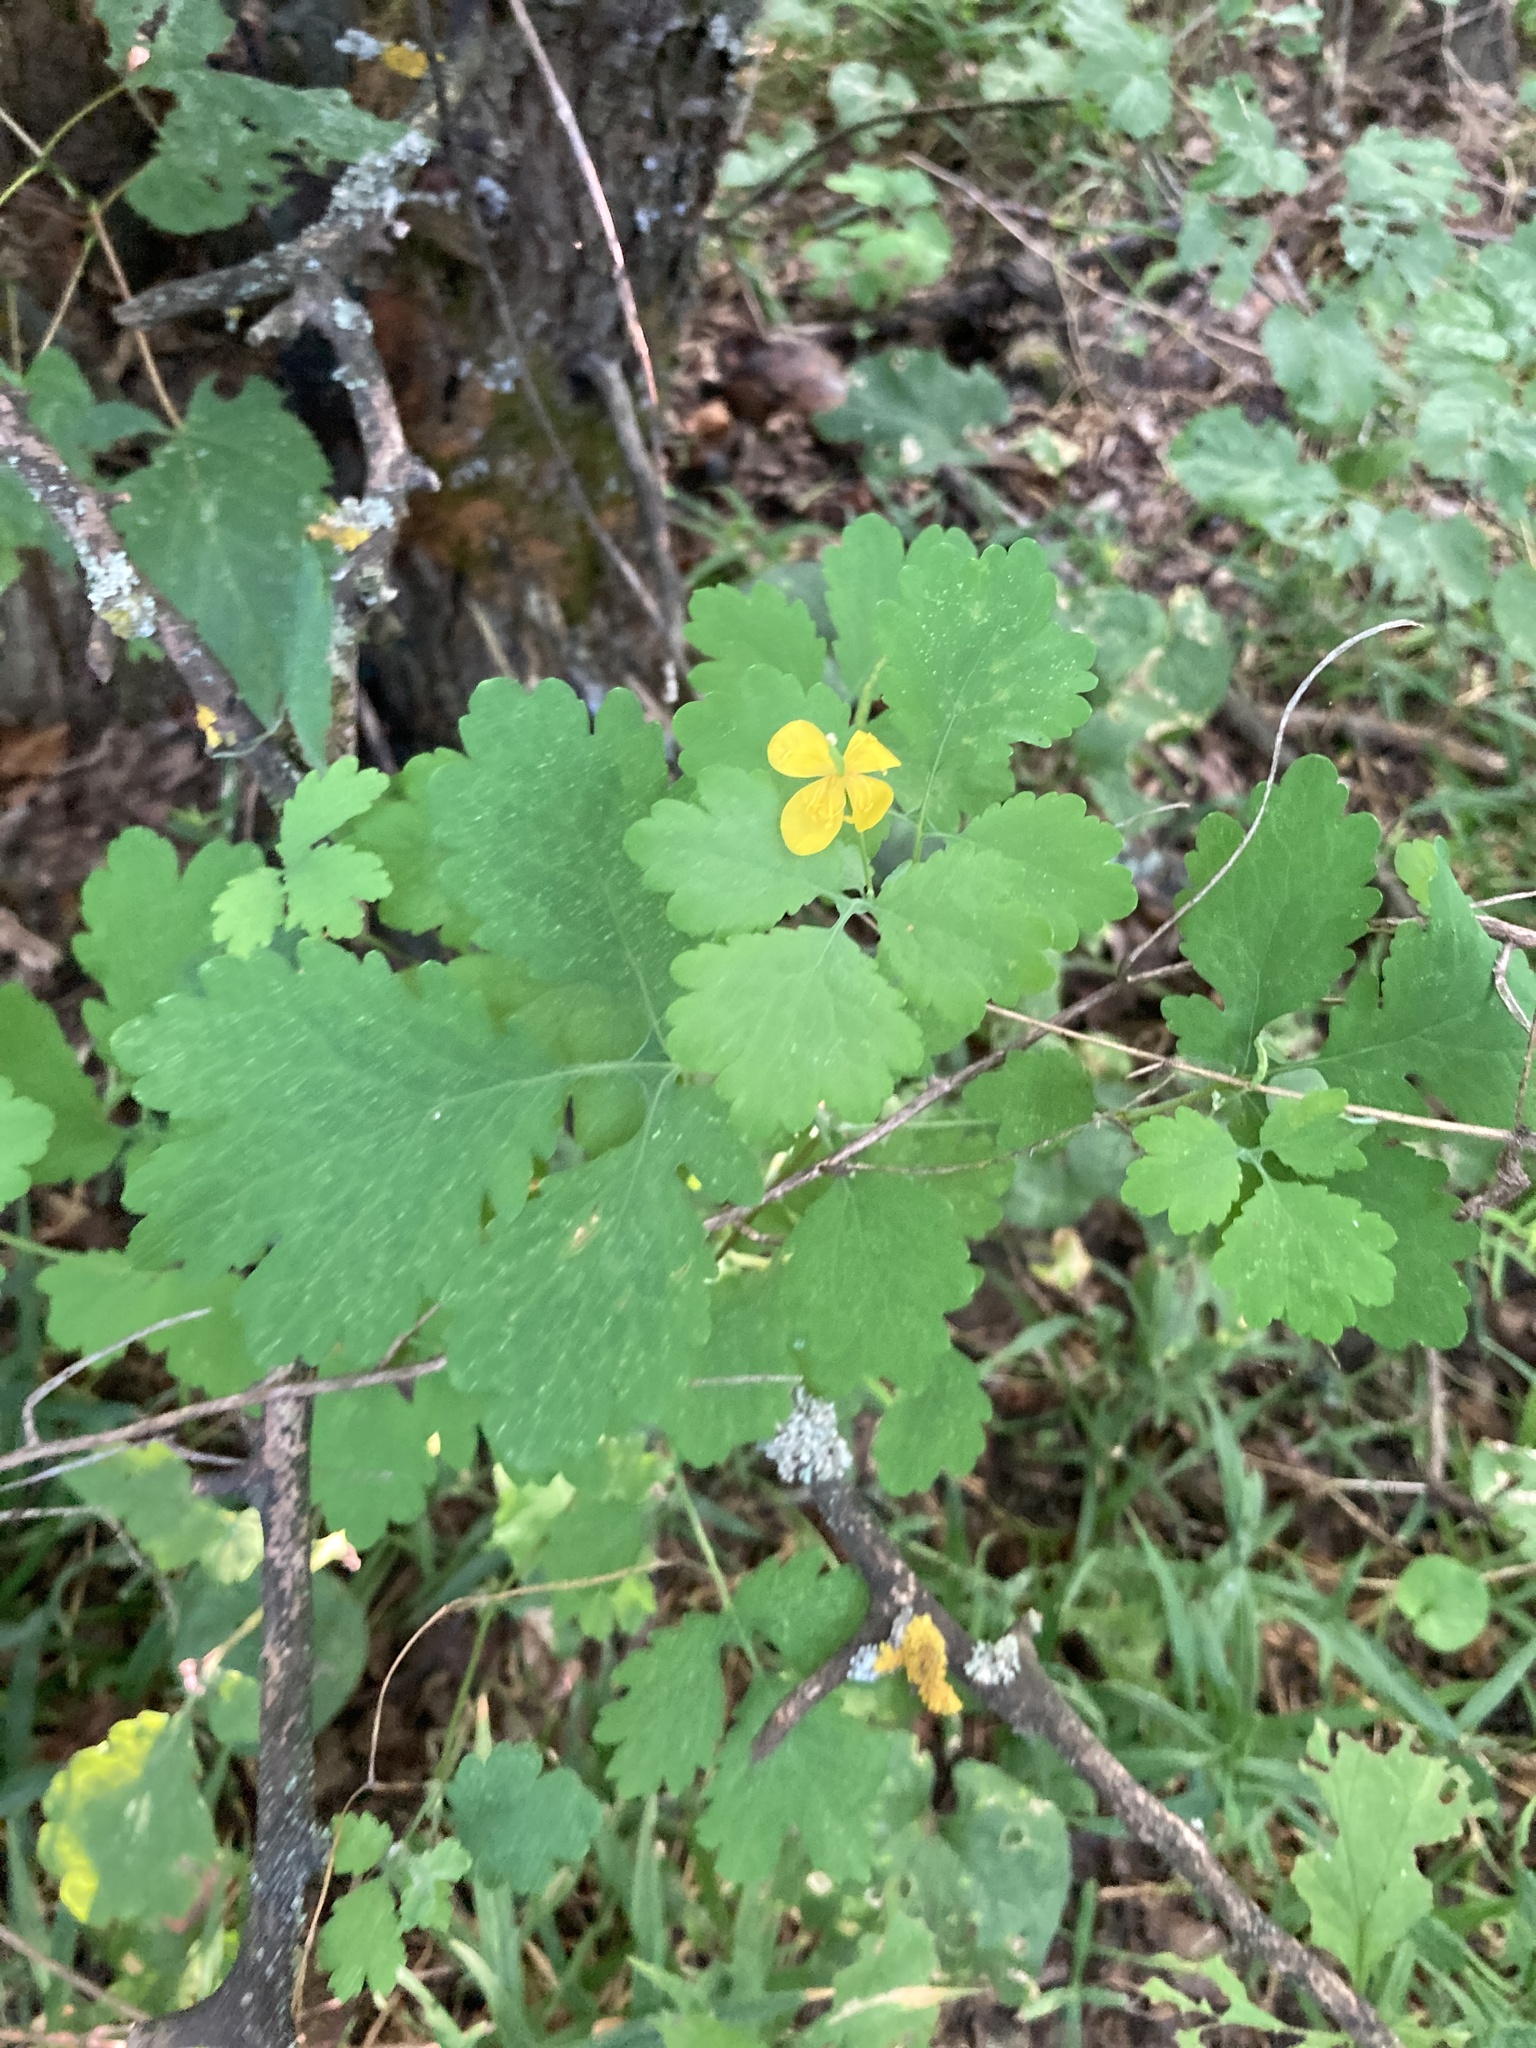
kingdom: Plantae
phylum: Tracheophyta
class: Magnoliopsida
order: Ranunculales
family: Papaveraceae
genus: Chelidonium
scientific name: Chelidonium majus
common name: Greater celandine
